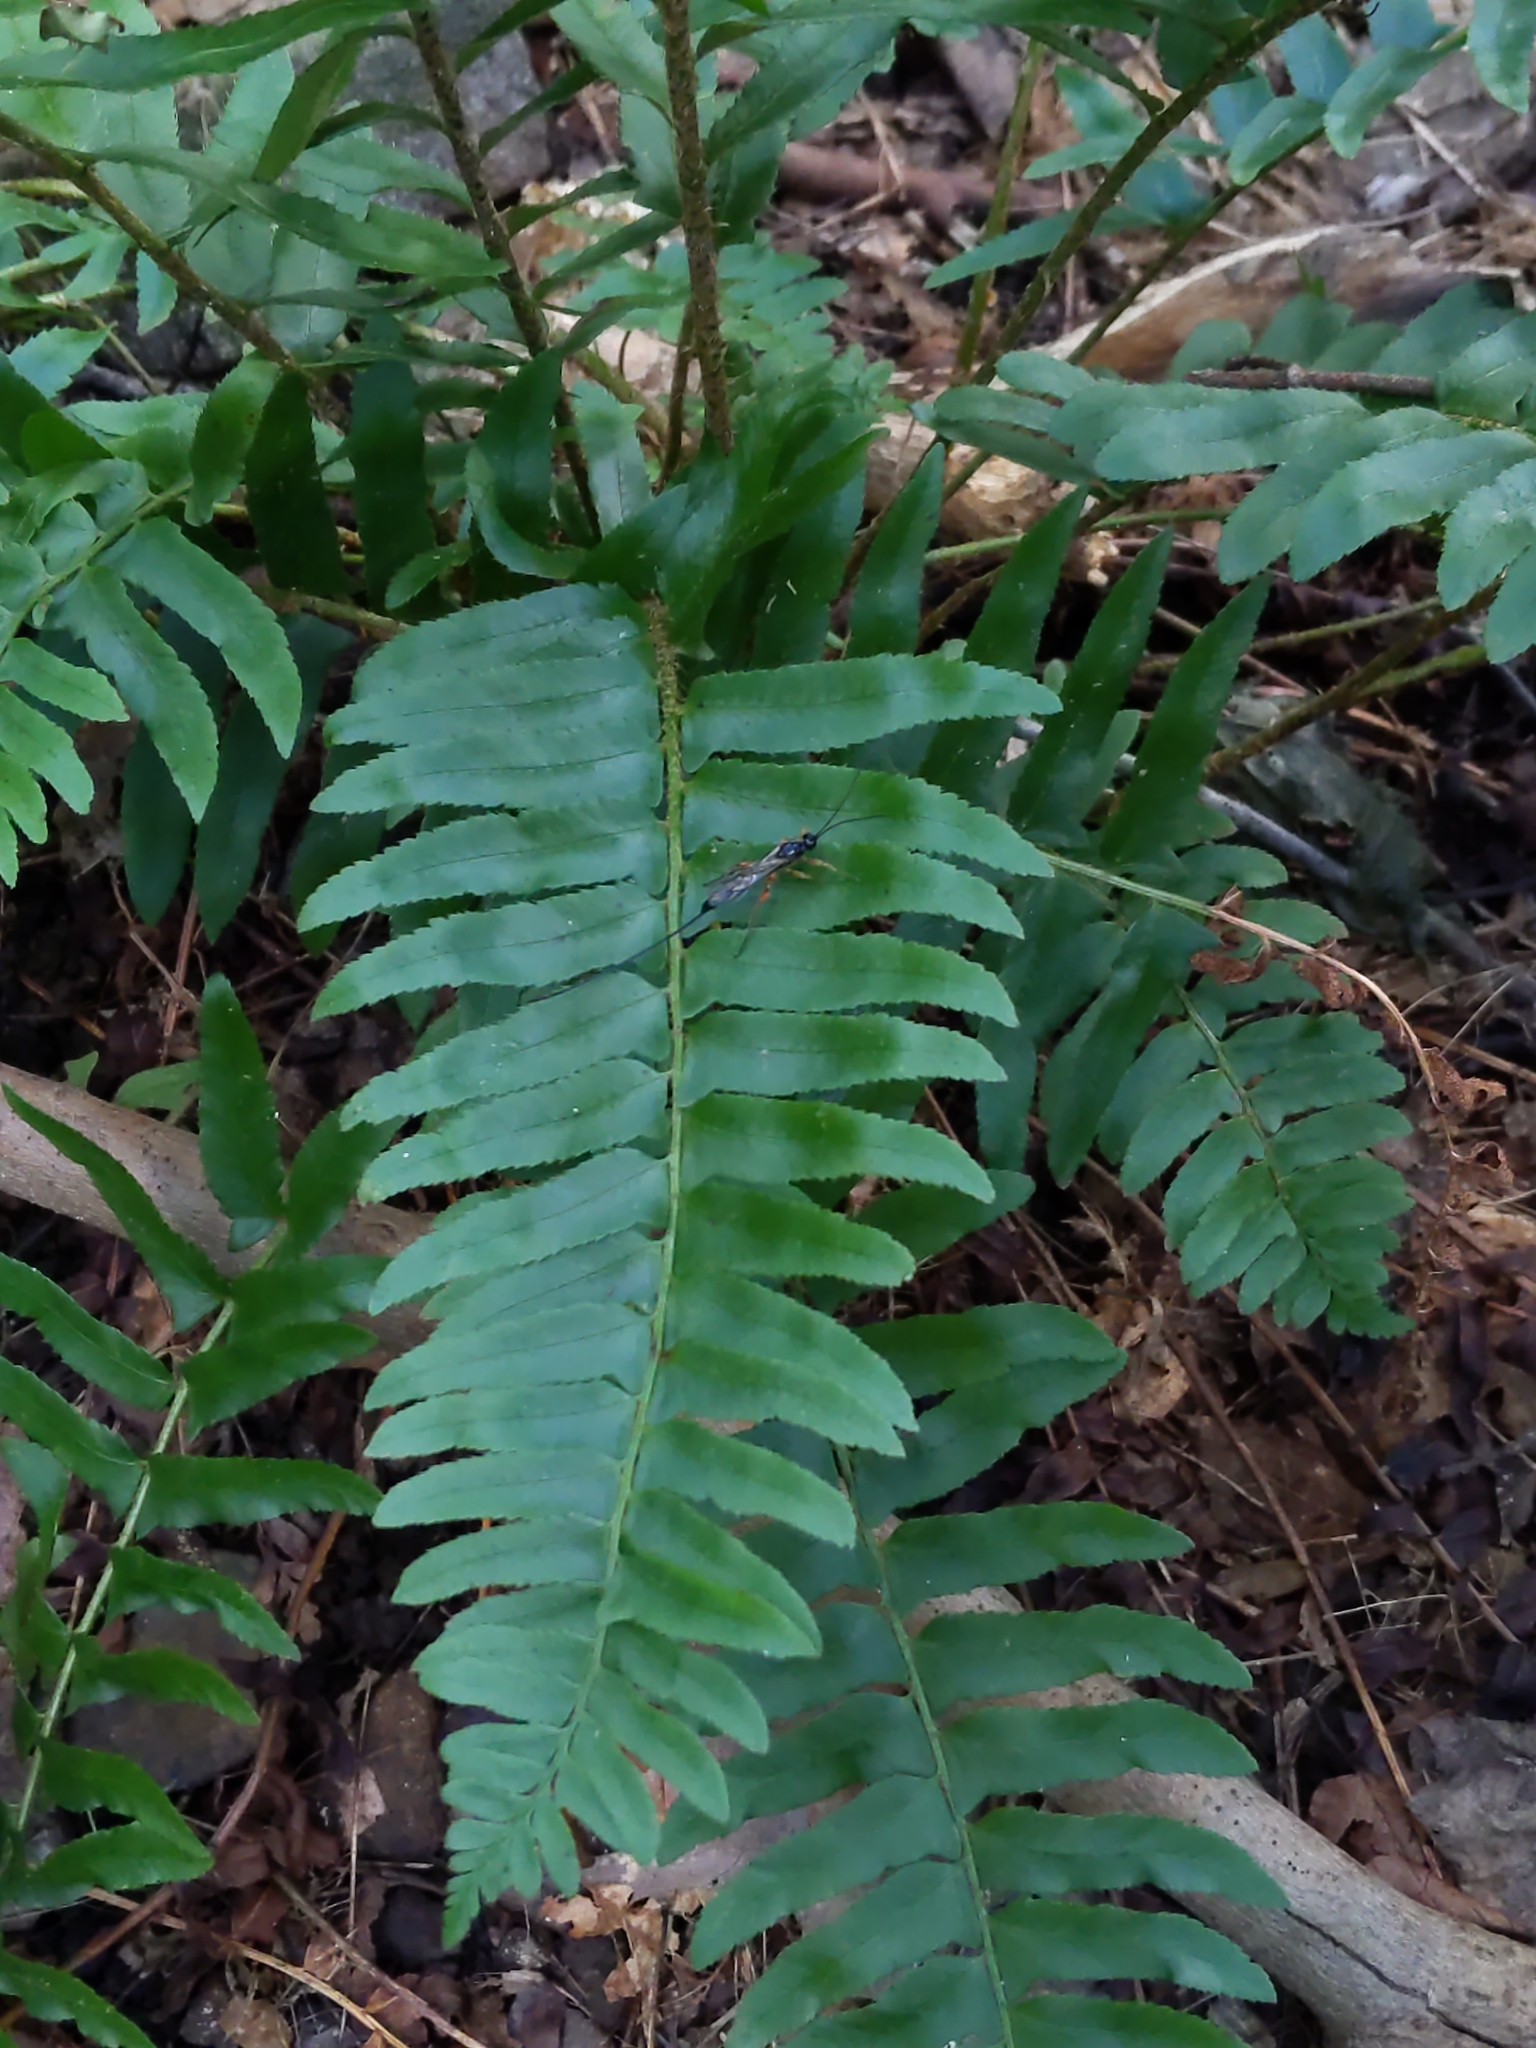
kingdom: Plantae
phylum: Tracheophyta
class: Polypodiopsida
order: Polypodiales
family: Dryopteridaceae
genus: Polystichum
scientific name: Polystichum acrostichoides
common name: Christmas fern
